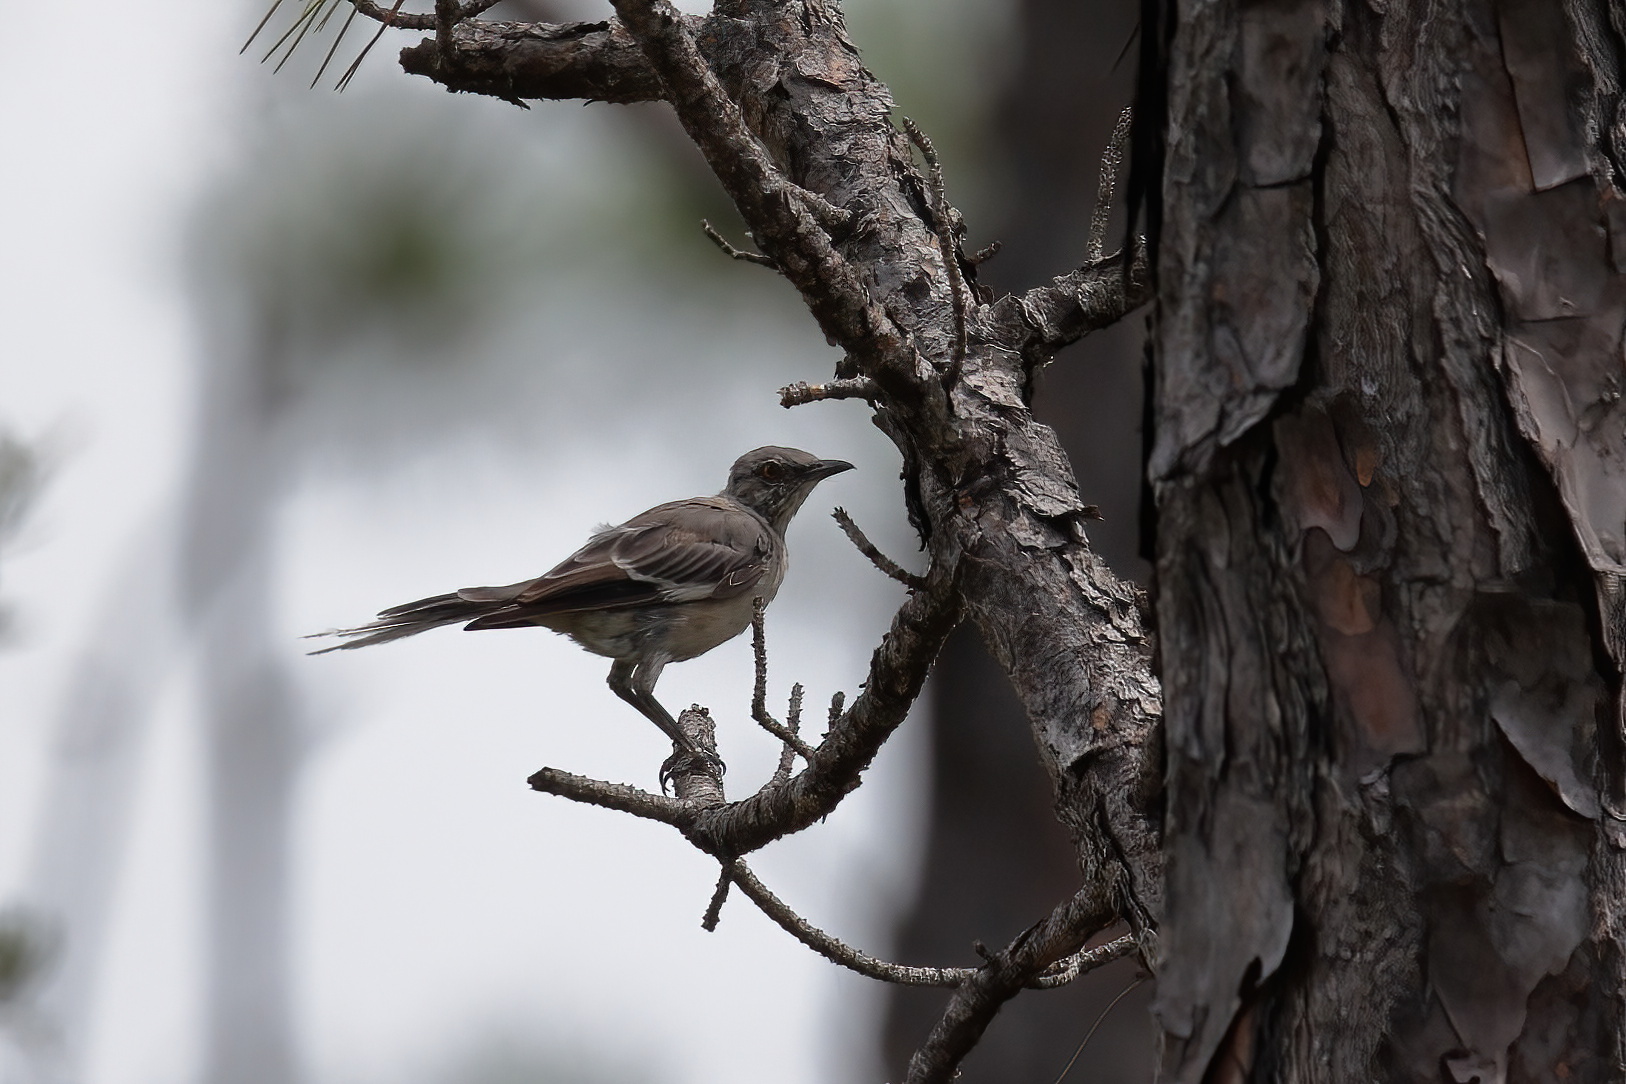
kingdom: Animalia
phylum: Chordata
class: Aves
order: Passeriformes
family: Mimidae
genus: Mimus
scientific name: Mimus polyglottos
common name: Northern mockingbird
